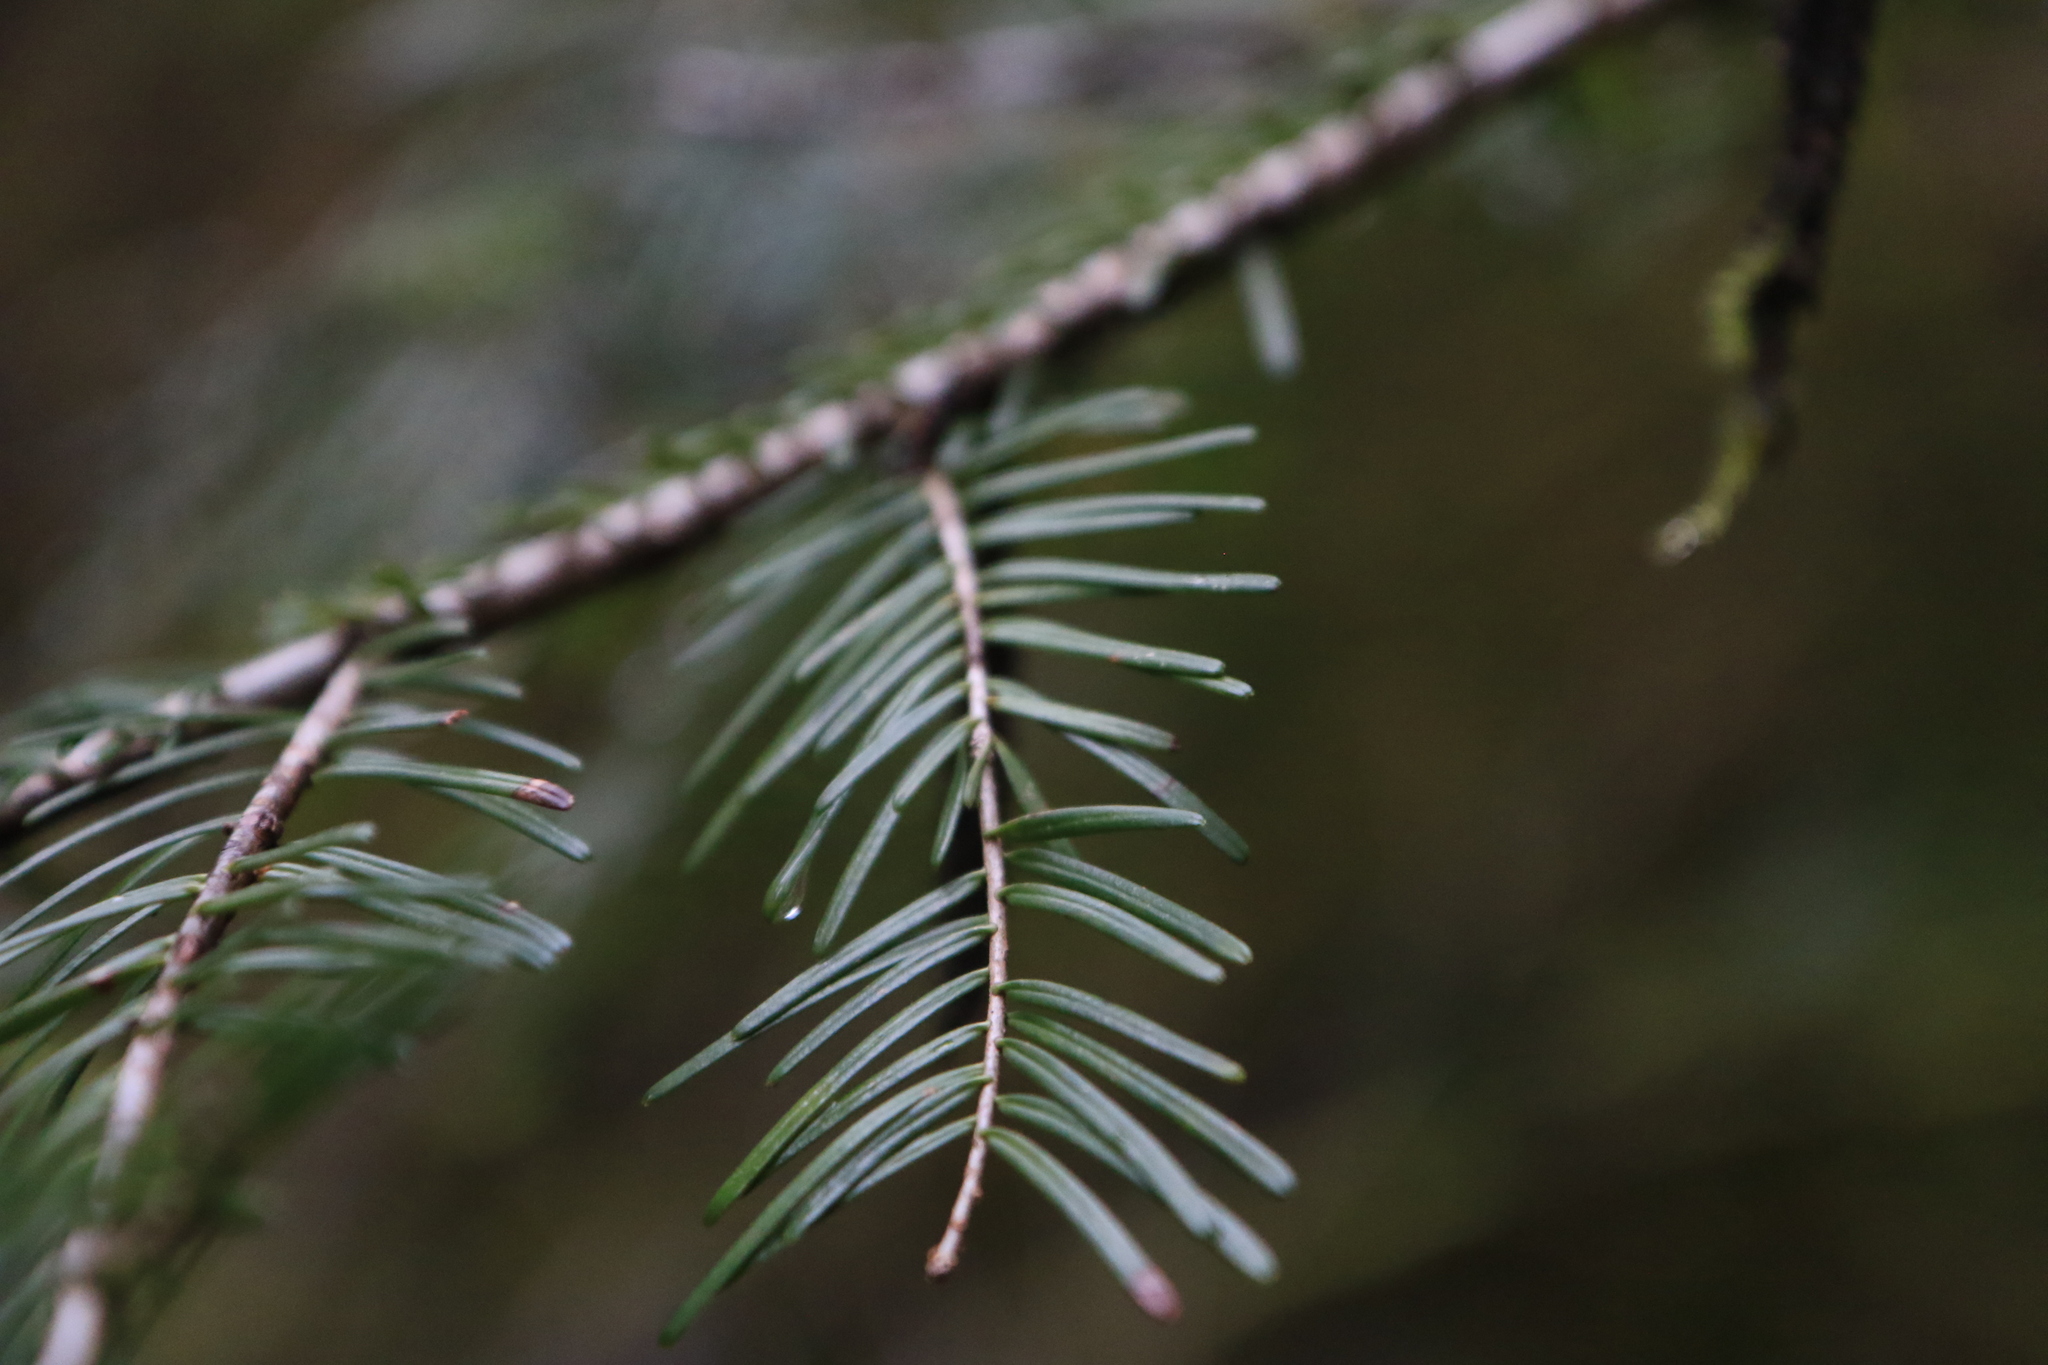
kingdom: Plantae
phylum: Tracheophyta
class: Pinopsida
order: Pinales
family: Pinaceae
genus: Abies
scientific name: Abies grandis
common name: Giant fir
